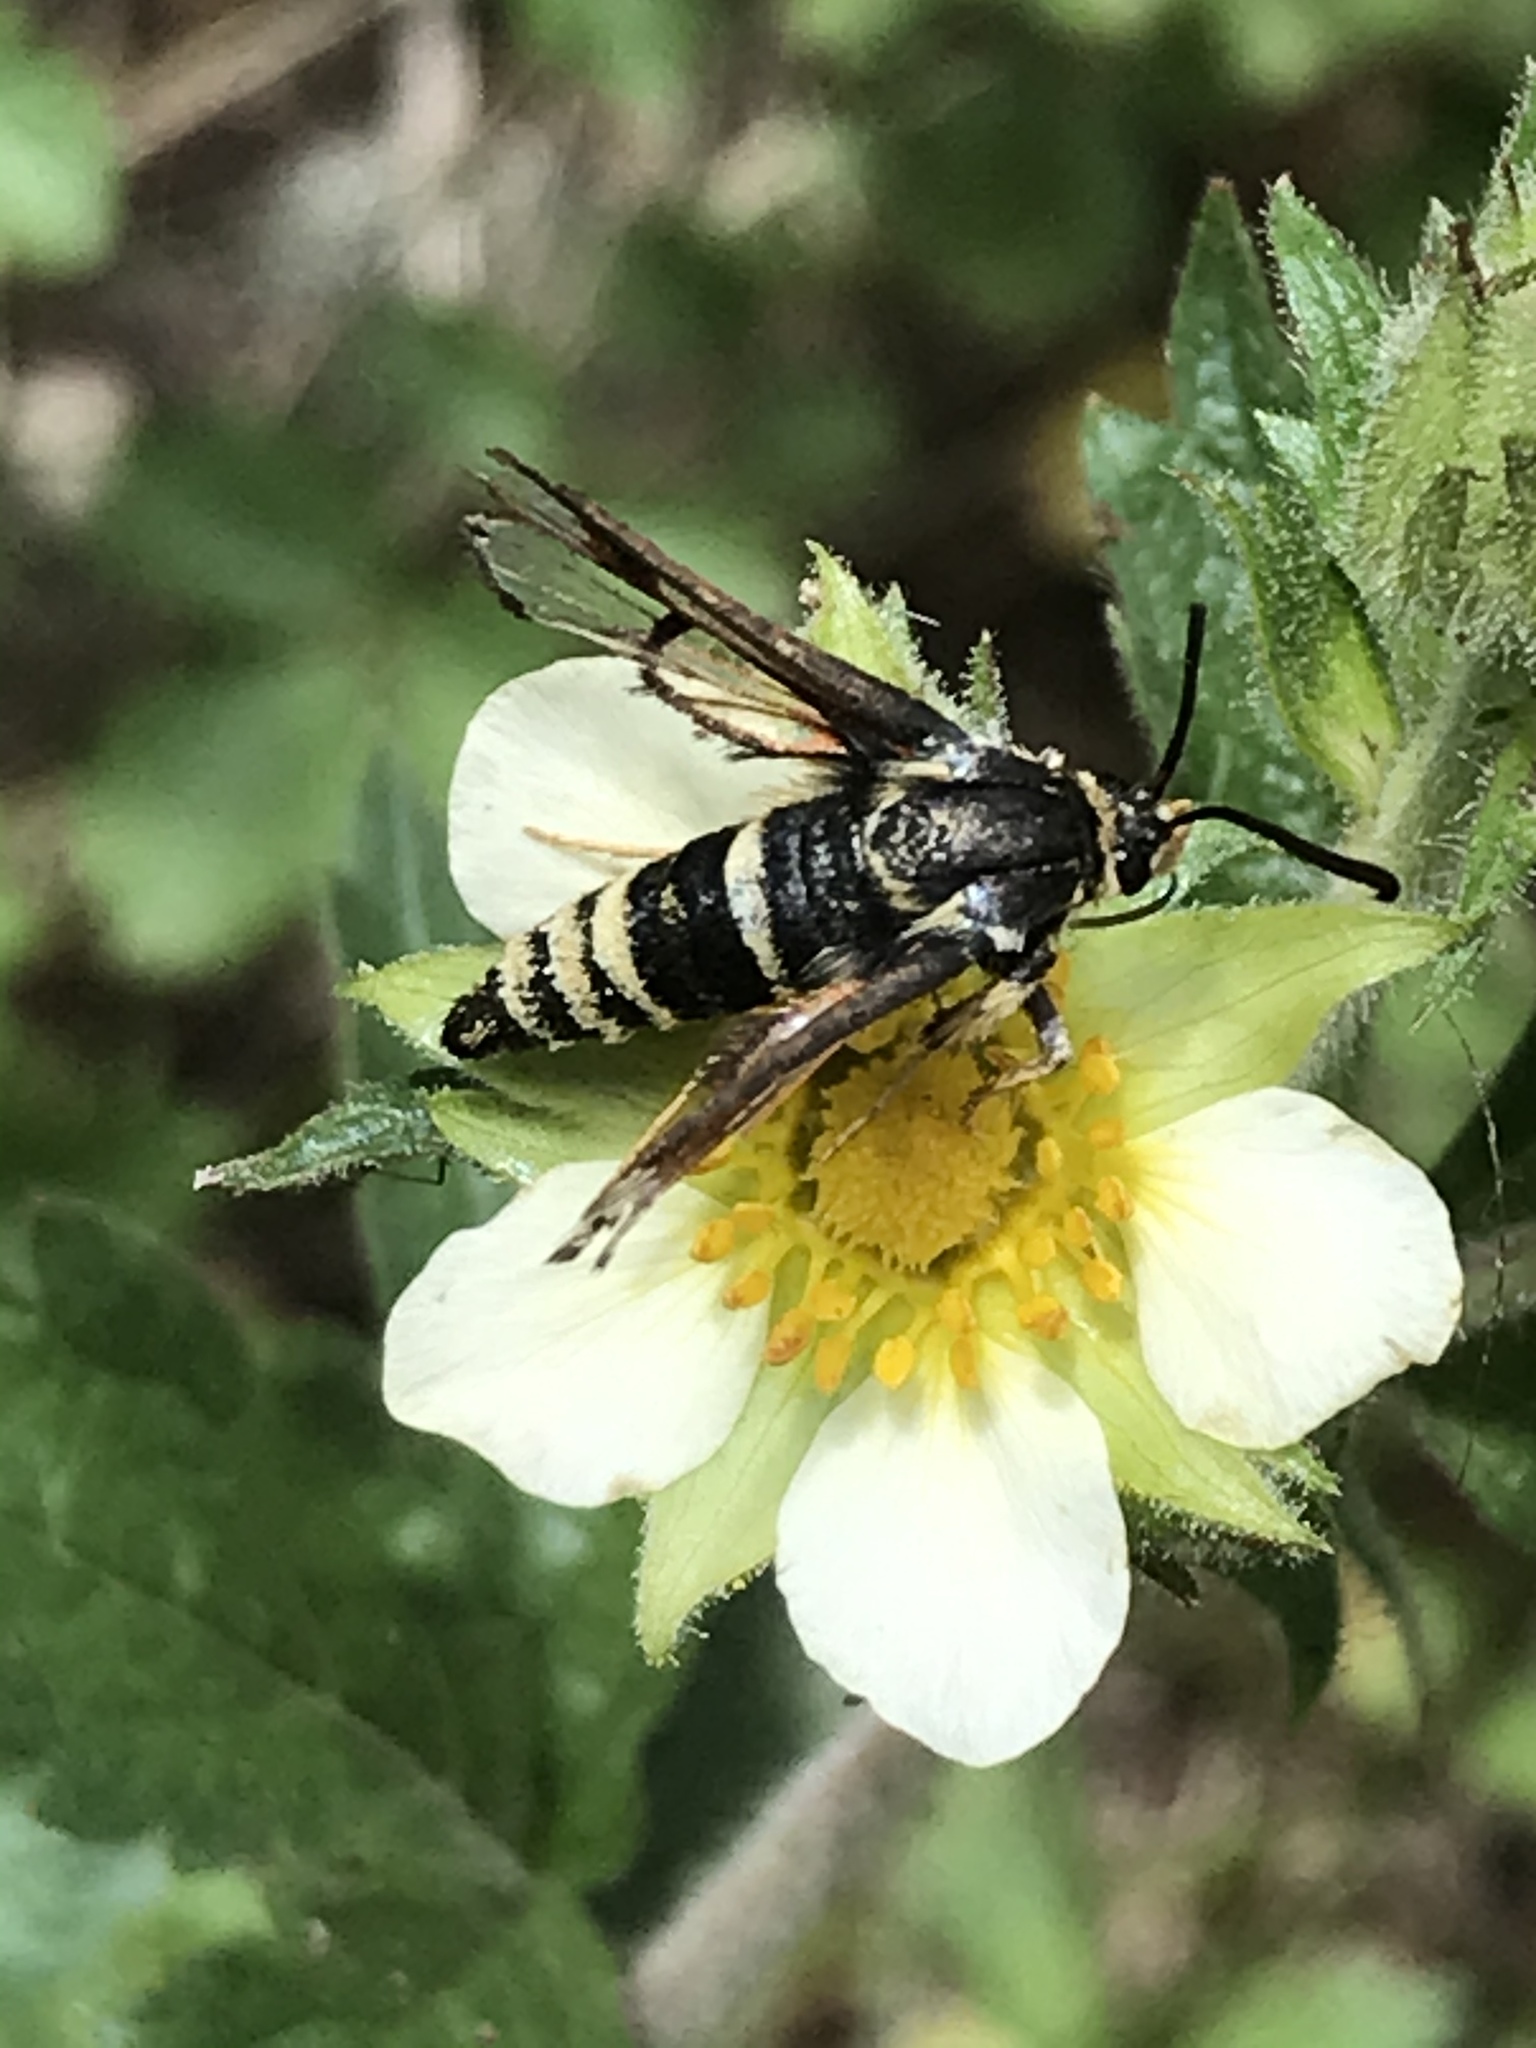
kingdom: Animalia
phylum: Arthropoda
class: Insecta
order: Lepidoptera
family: Sesiidae
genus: Albuna
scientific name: Albuna pyramidalis
